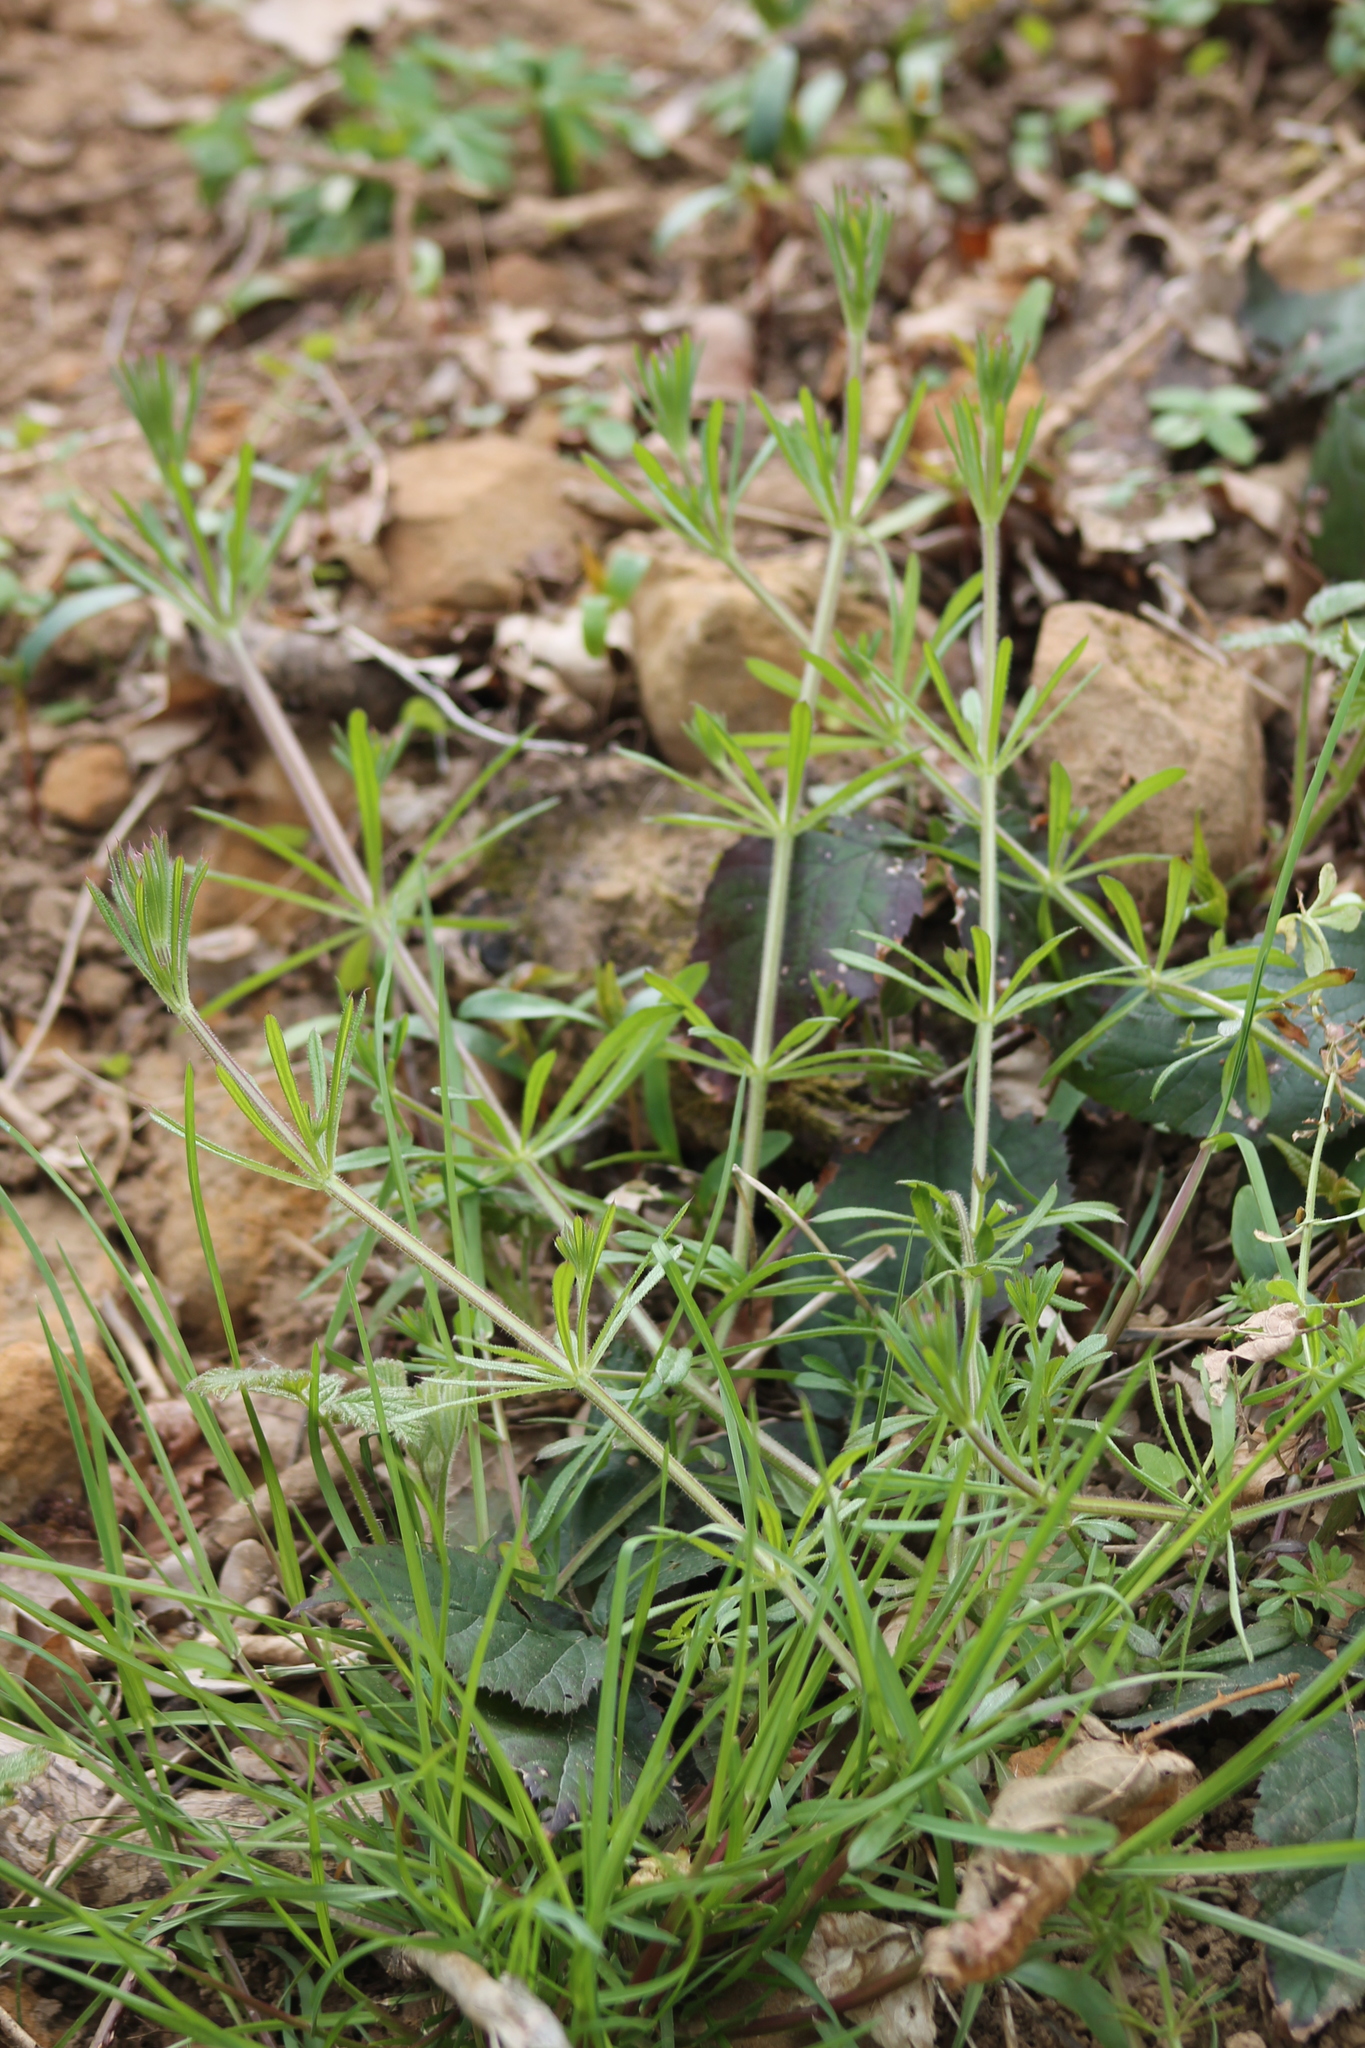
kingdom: Plantae
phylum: Tracheophyta
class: Magnoliopsida
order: Gentianales
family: Rubiaceae
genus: Galium
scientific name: Galium aparine
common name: Cleavers
